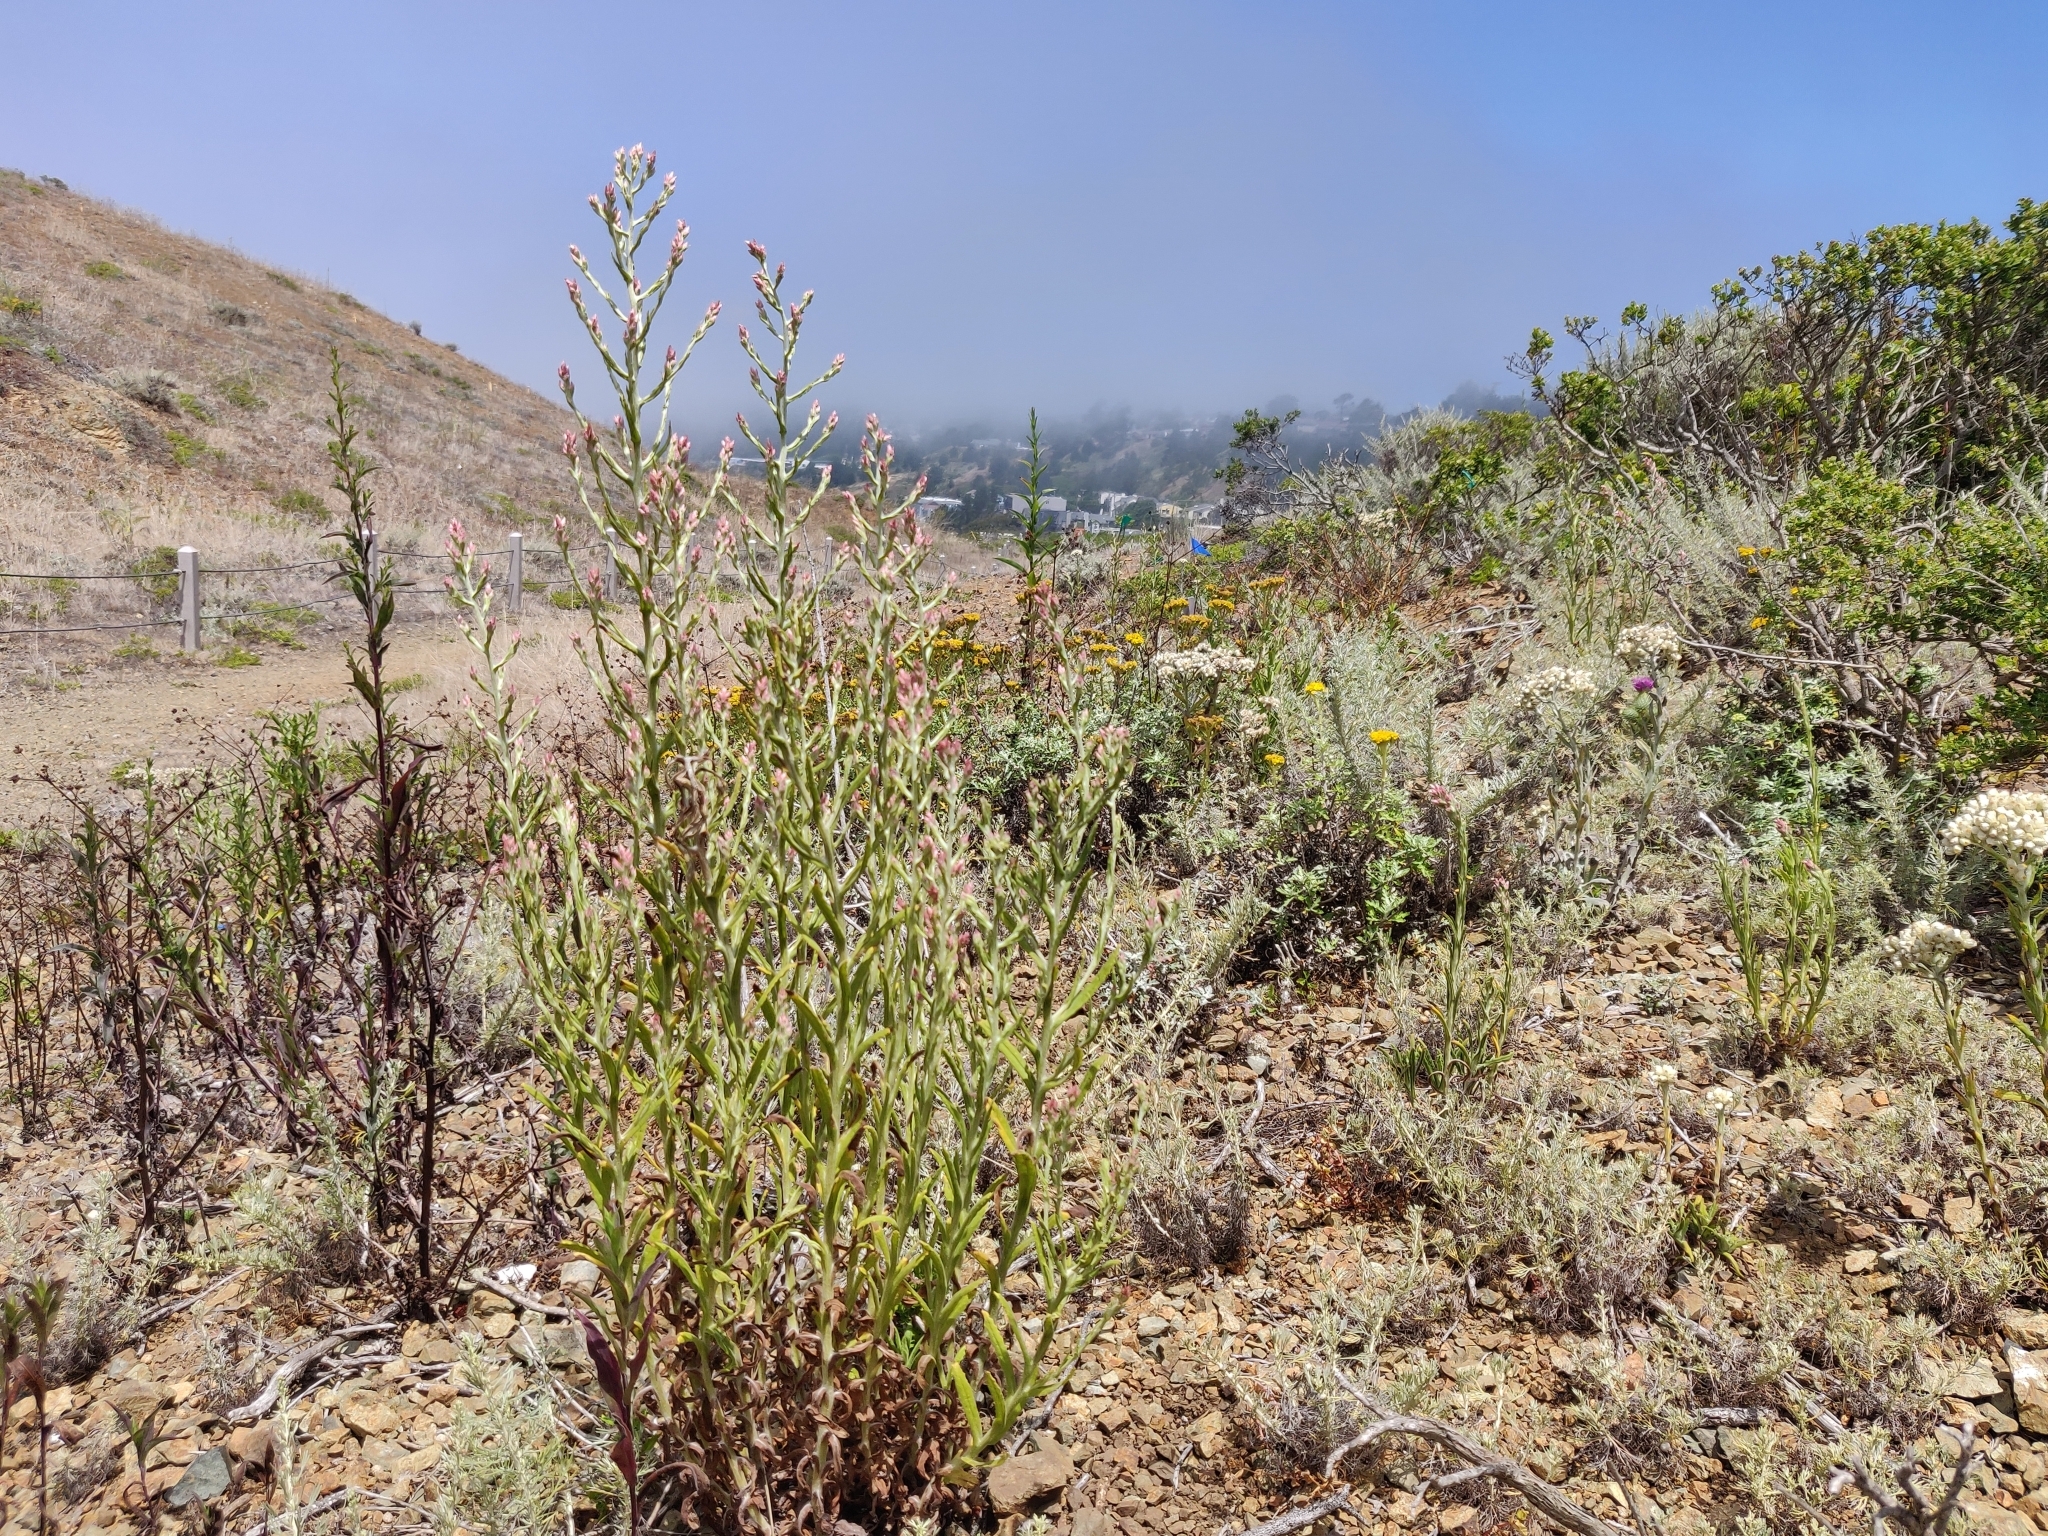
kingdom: Plantae
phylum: Tracheophyta
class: Magnoliopsida
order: Asterales
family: Asteraceae
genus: Pseudognaphalium
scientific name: Pseudognaphalium ramosissimum
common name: Pink rabbit-tobacco
